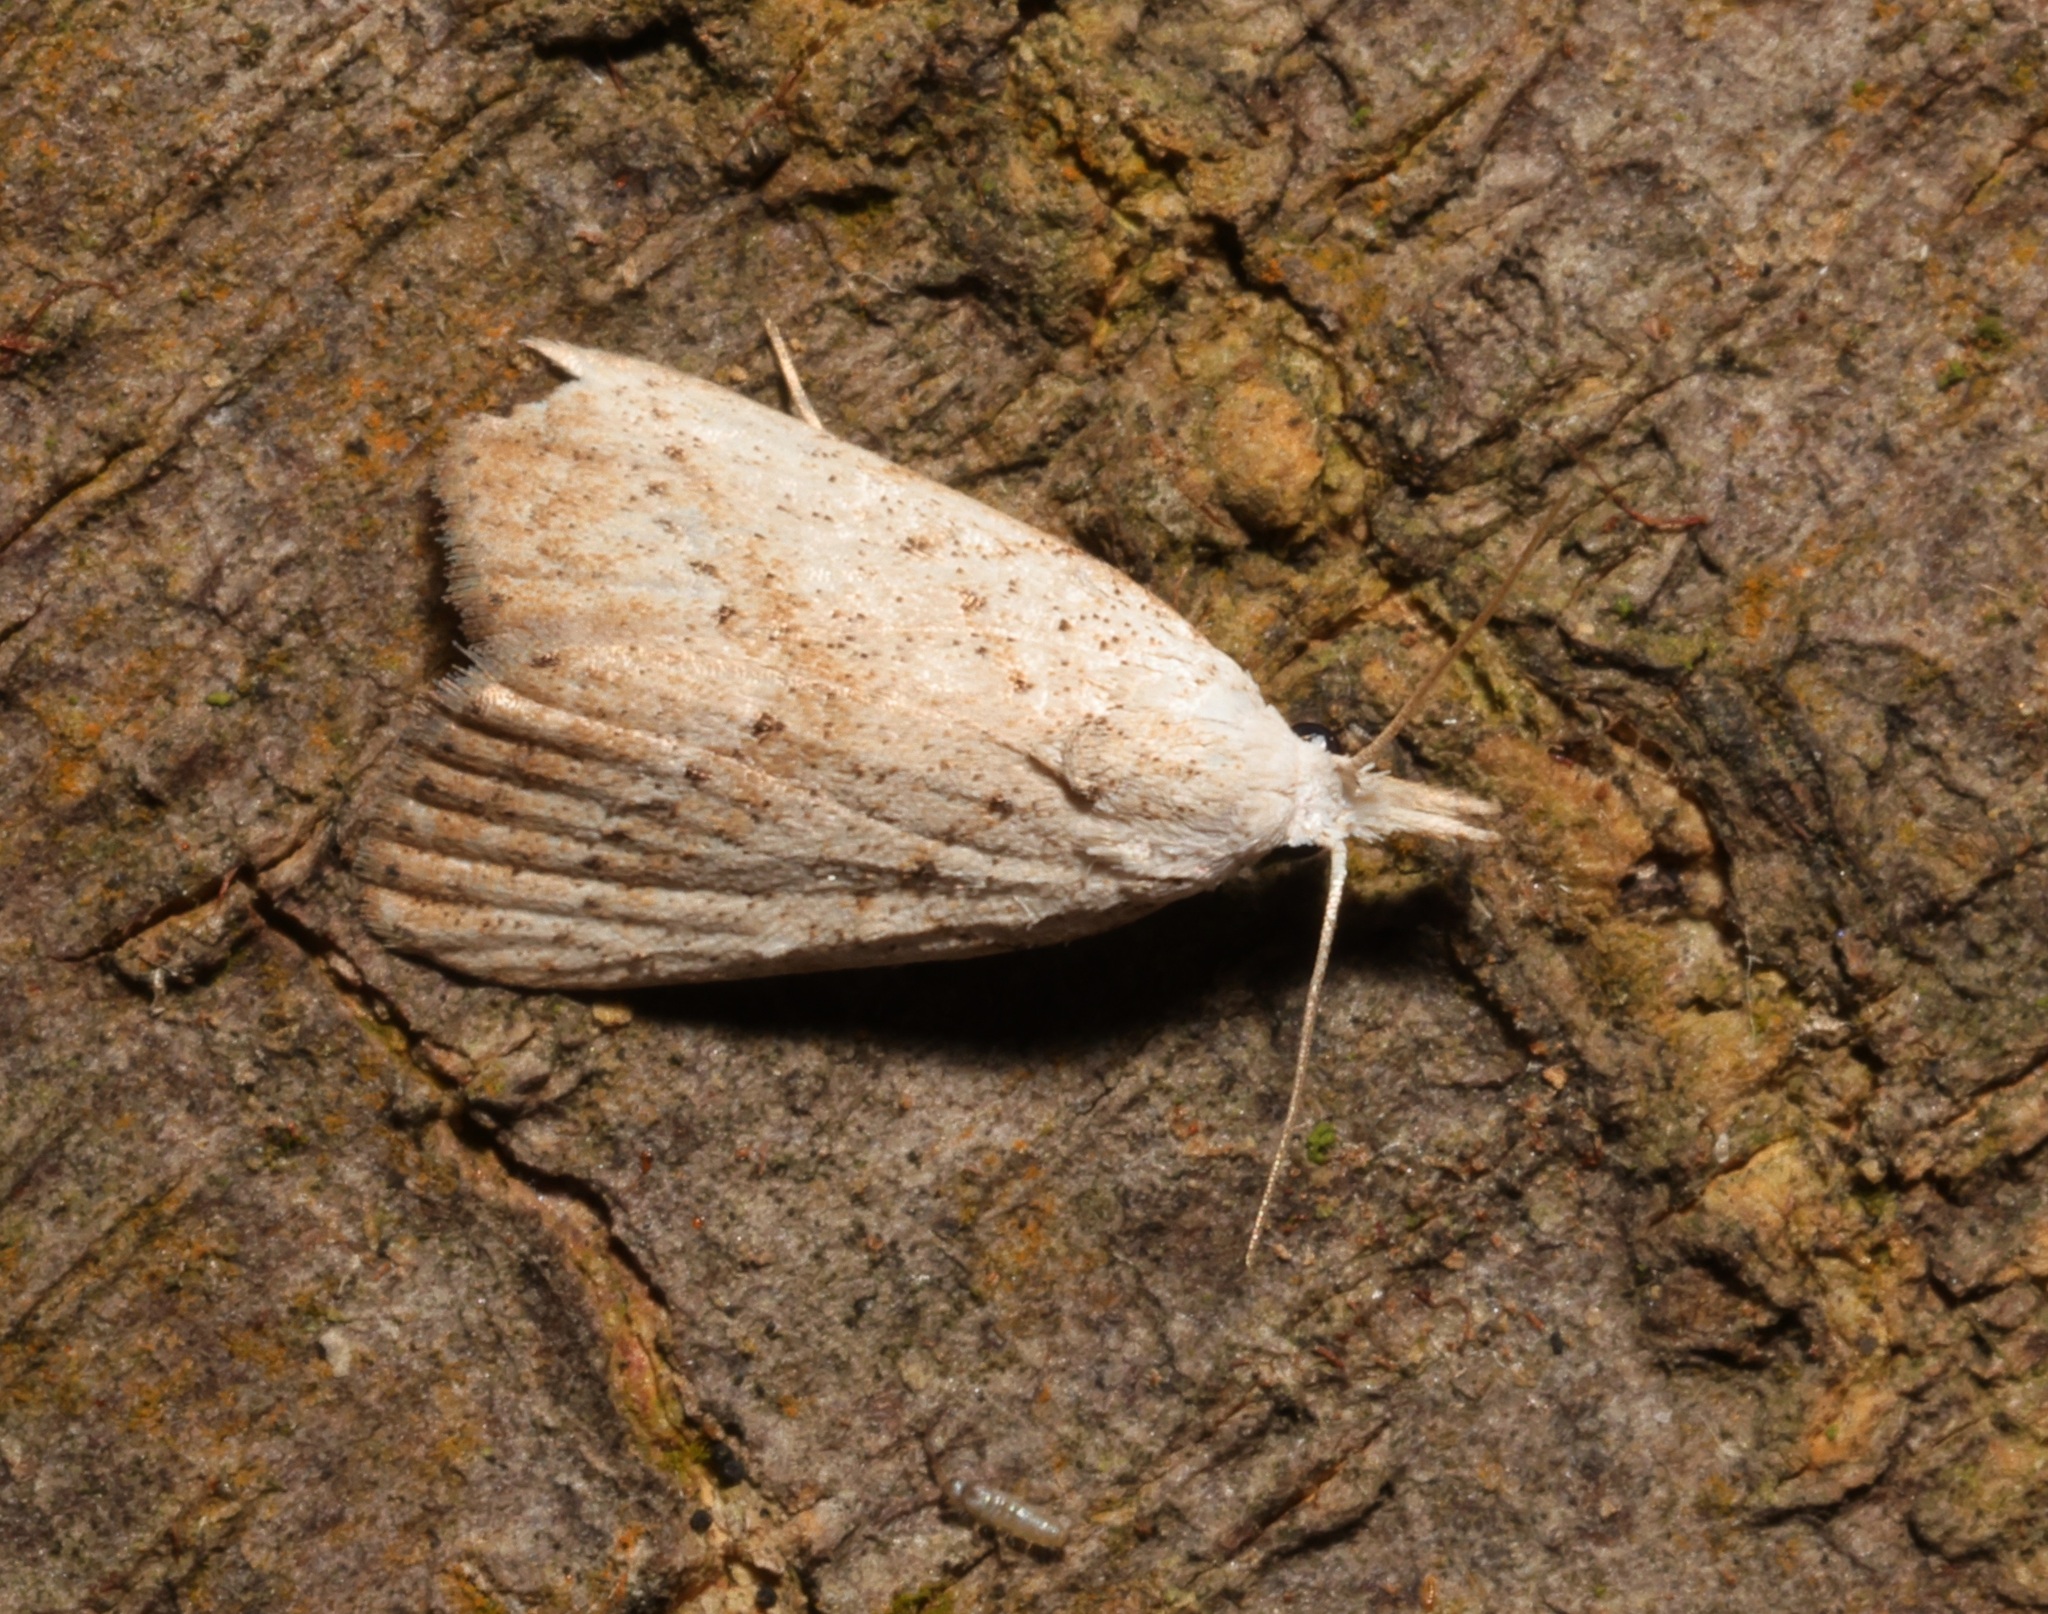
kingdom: Animalia
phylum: Arthropoda
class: Insecta
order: Lepidoptera
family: Nolidae
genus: Meganola
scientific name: Meganola brunellus
